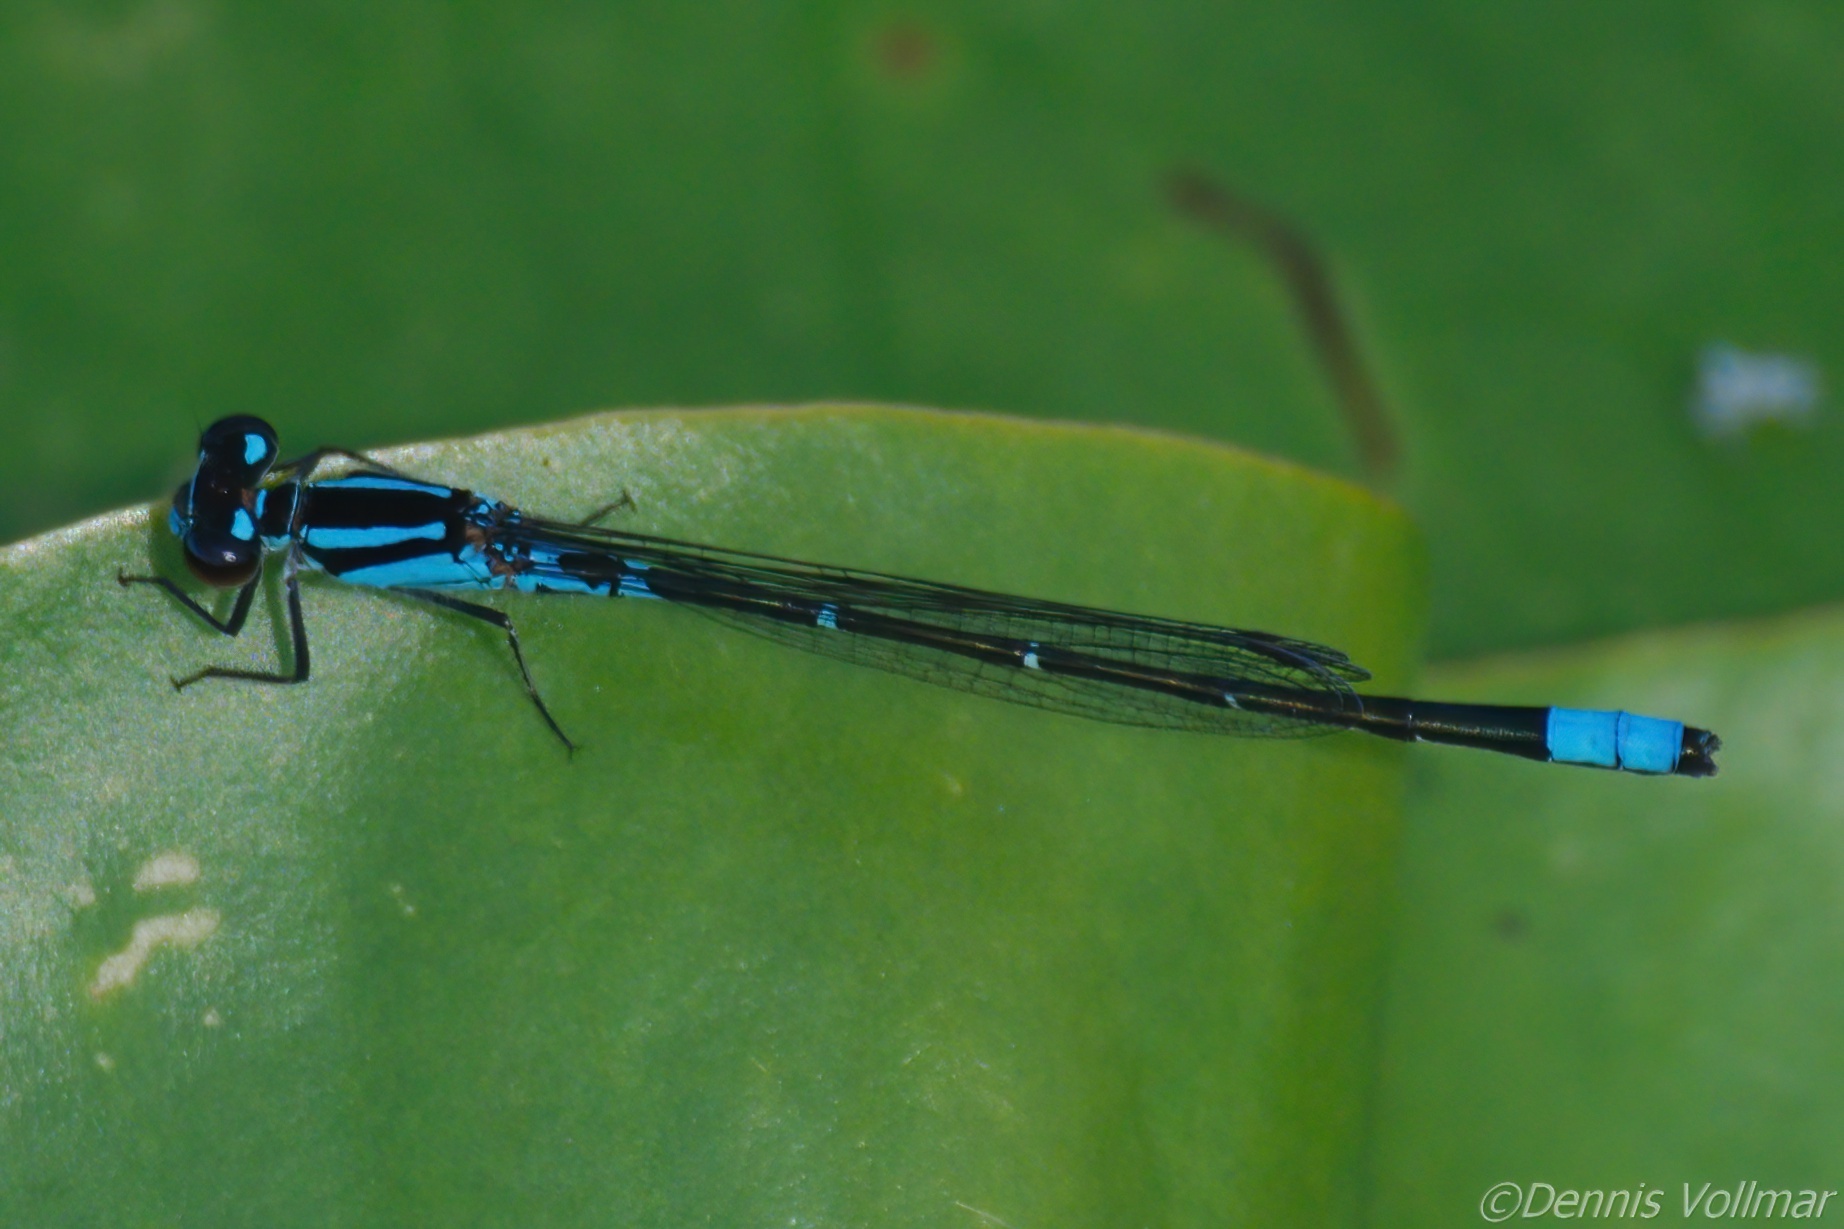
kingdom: Animalia
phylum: Arthropoda
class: Insecta
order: Odonata
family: Coenagrionidae
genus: Enallagma
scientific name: Enallagma geminatum
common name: Skimming bluet
